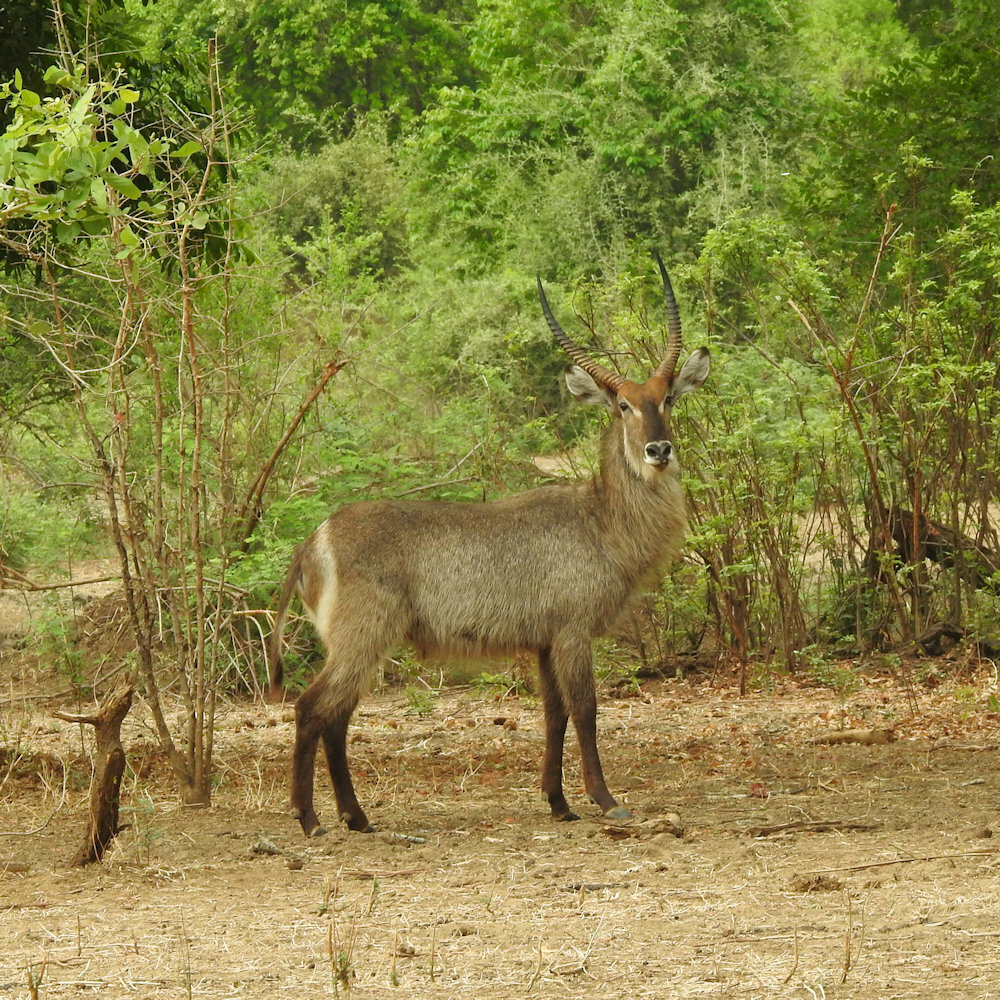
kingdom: Animalia
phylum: Chordata
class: Mammalia
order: Artiodactyla
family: Bovidae
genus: Kobus
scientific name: Kobus ellipsiprymnus
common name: Waterbuck
